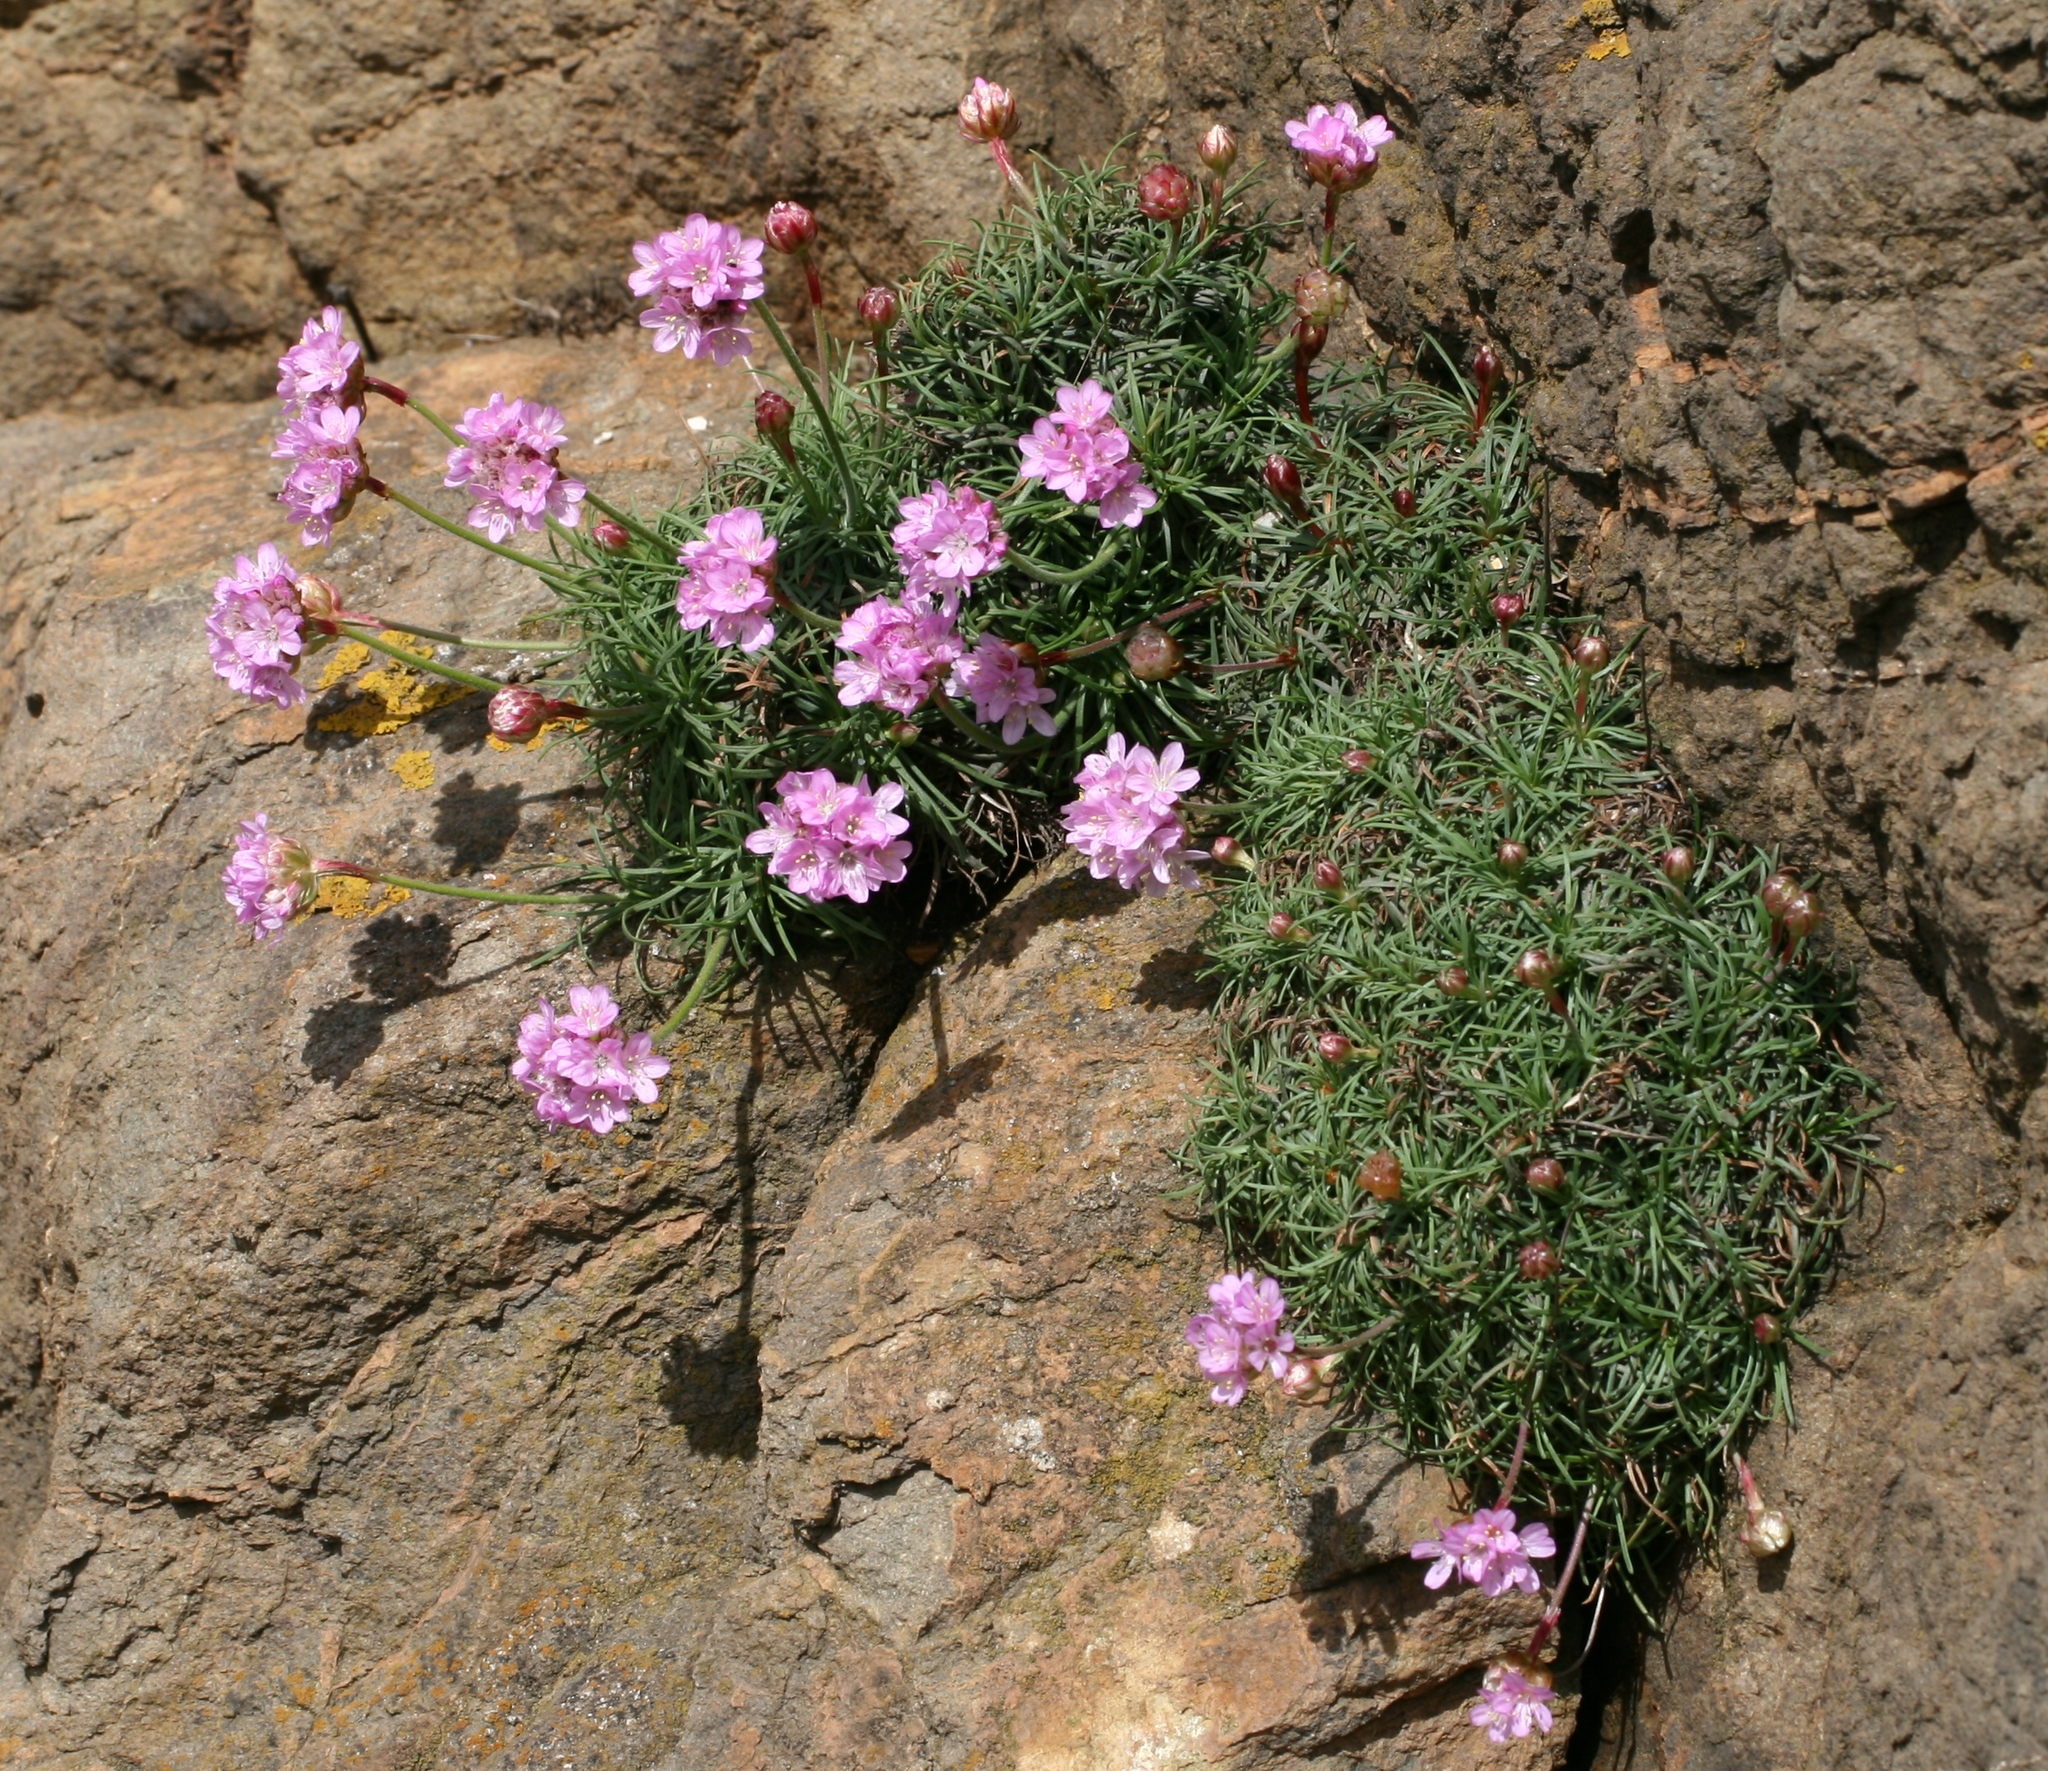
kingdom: Plantae
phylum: Tracheophyta
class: Magnoliopsida
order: Caryophyllales
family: Plumbaginaceae
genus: Armeria
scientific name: Armeria maritima
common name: Thrift
